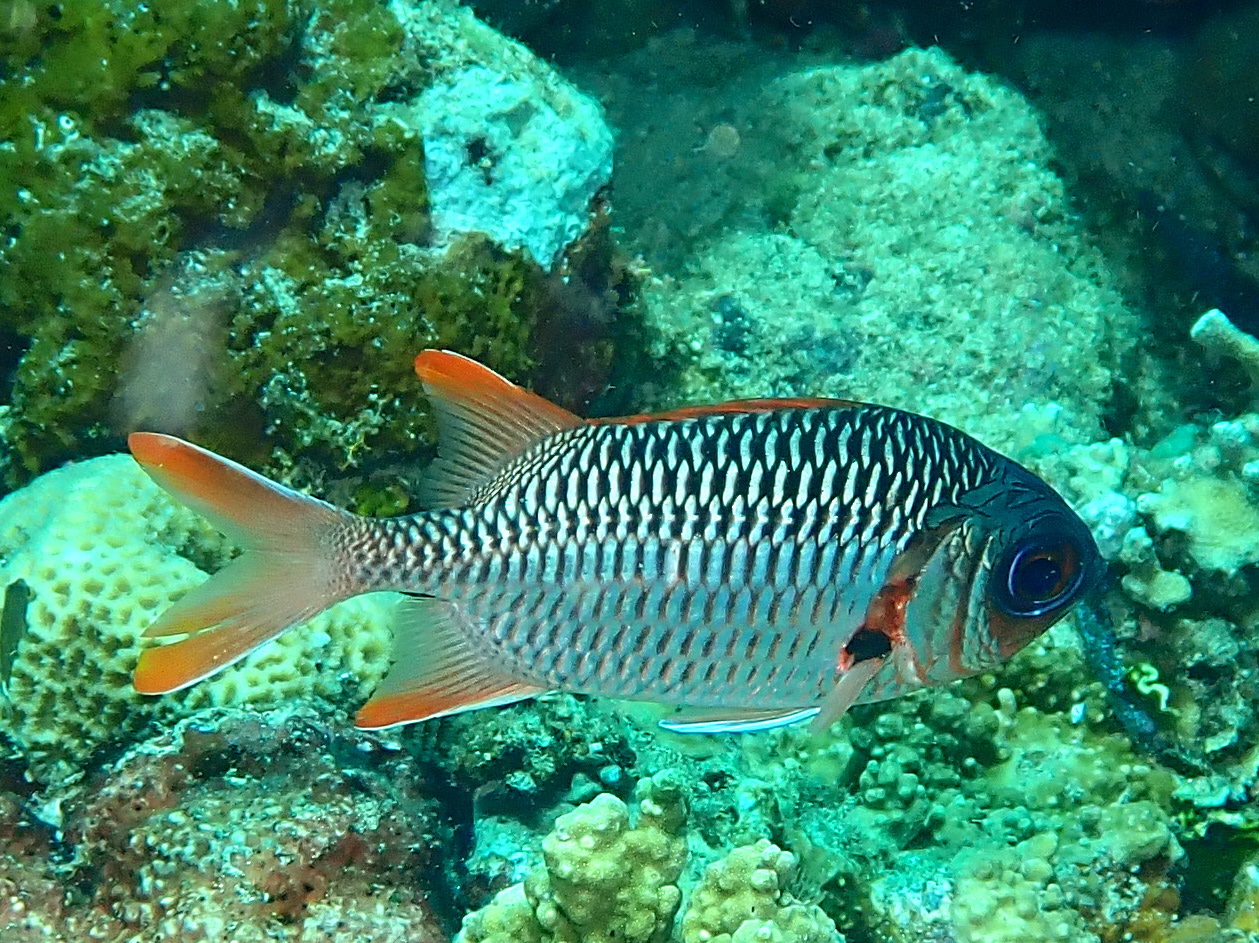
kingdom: Animalia
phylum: Chordata
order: Beryciformes
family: Holocentridae
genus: Myripristis
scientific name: Myripristis violacea
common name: Lattice soldierfish
